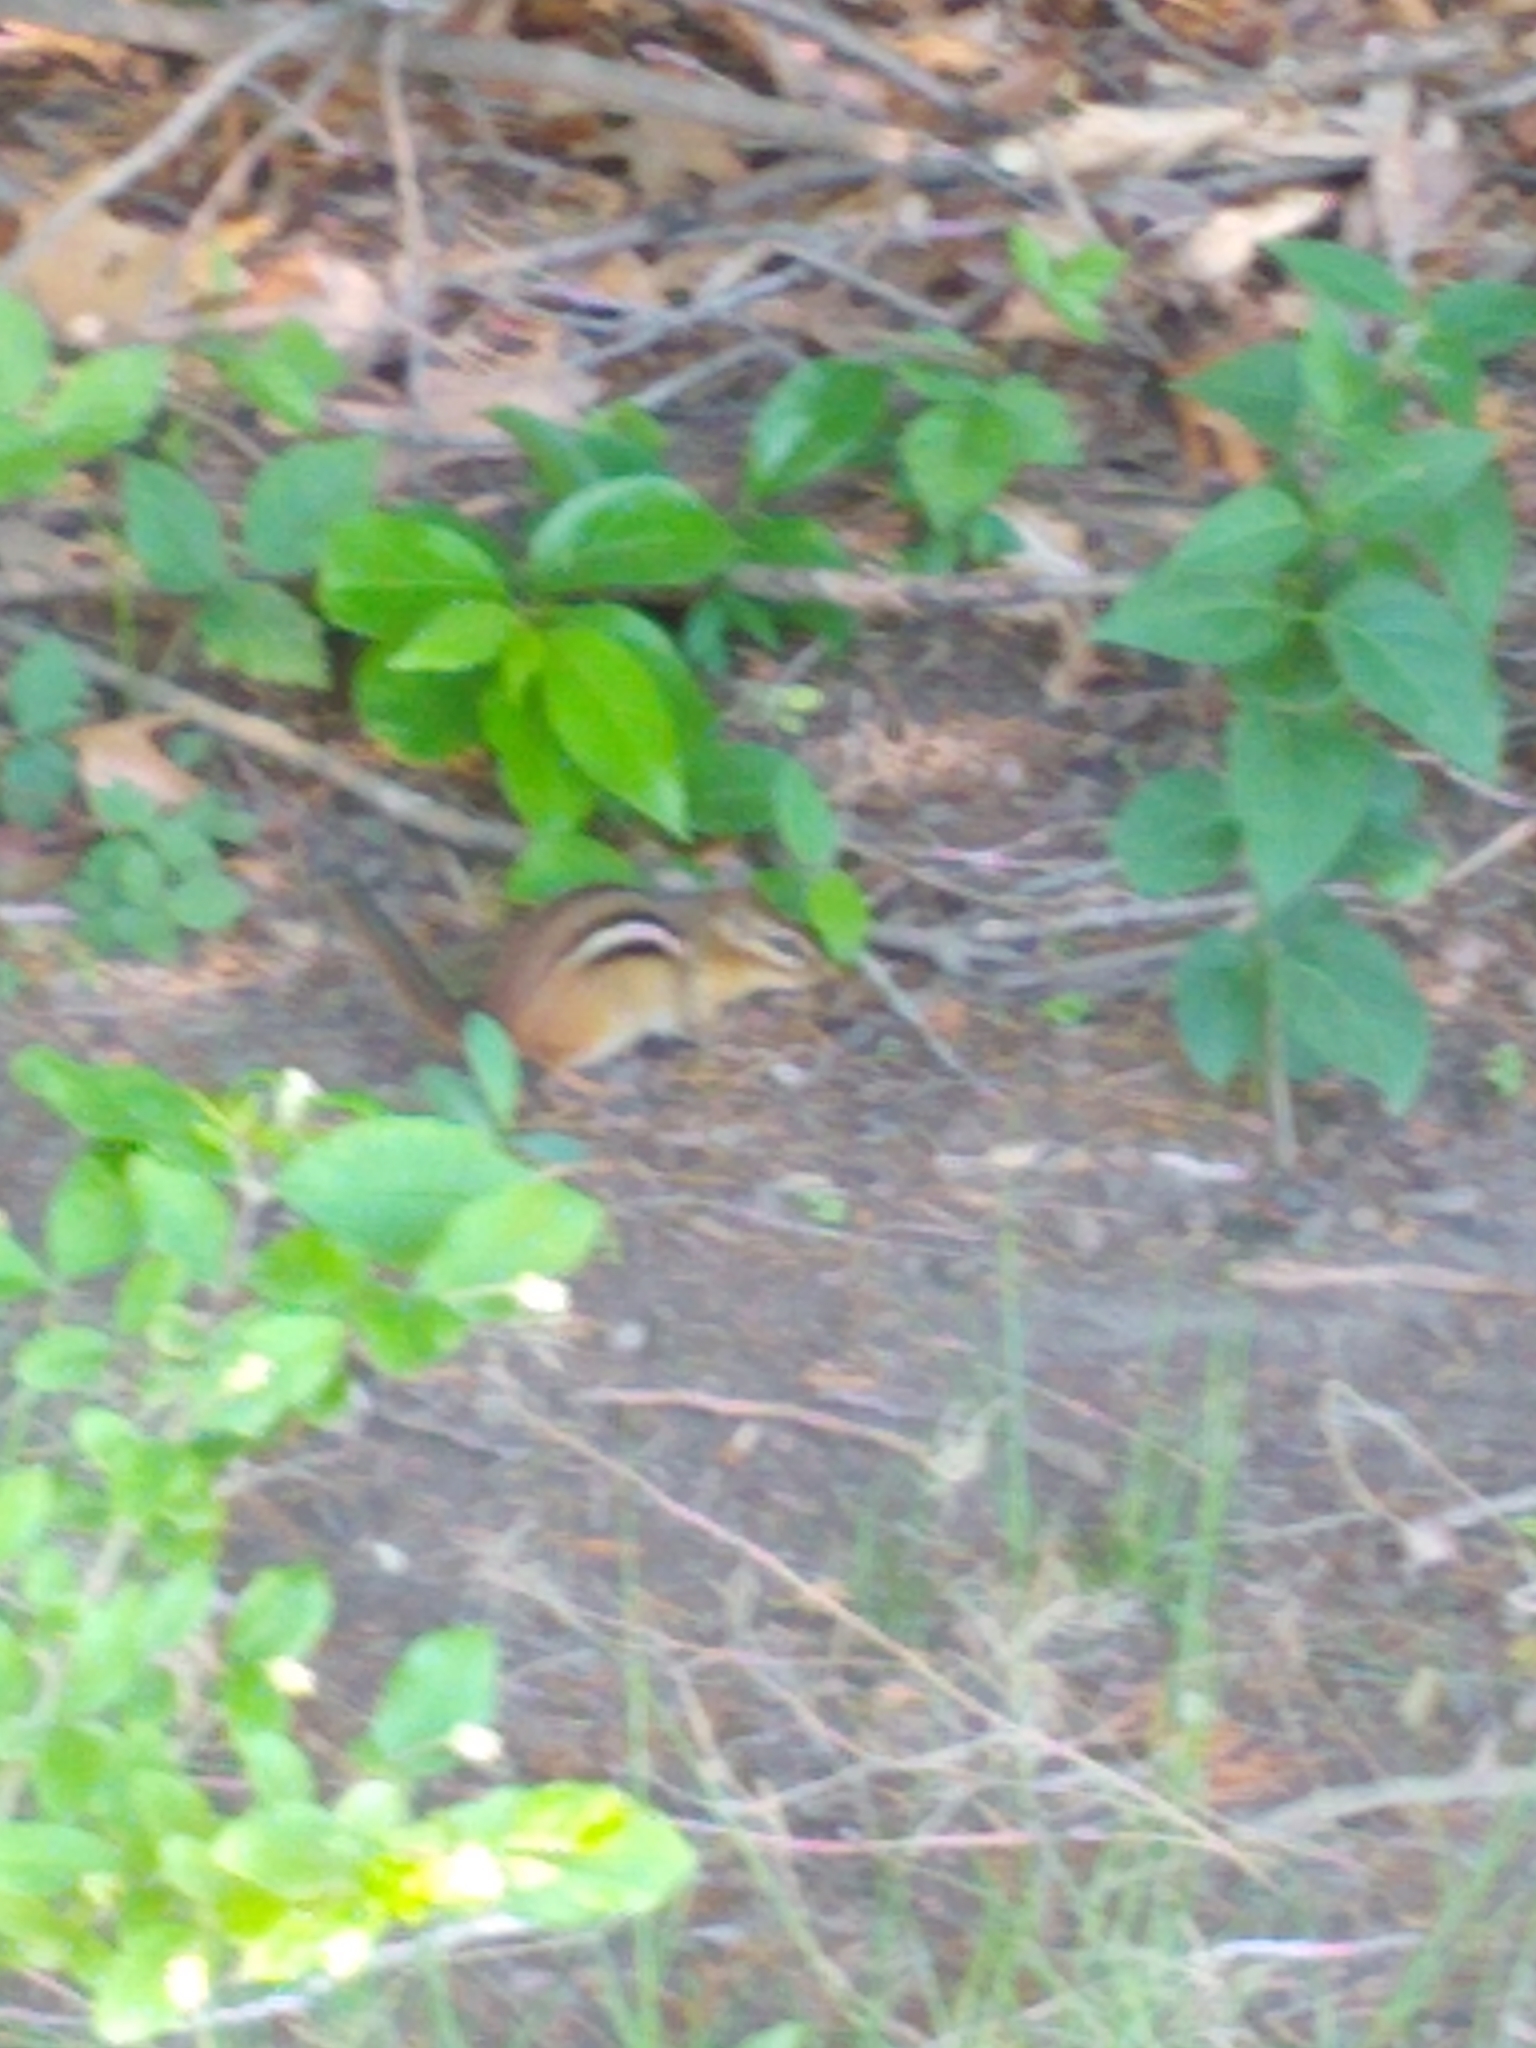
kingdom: Animalia
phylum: Chordata
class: Mammalia
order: Rodentia
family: Sciuridae
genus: Tamias
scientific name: Tamias striatus
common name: Eastern chipmunk
